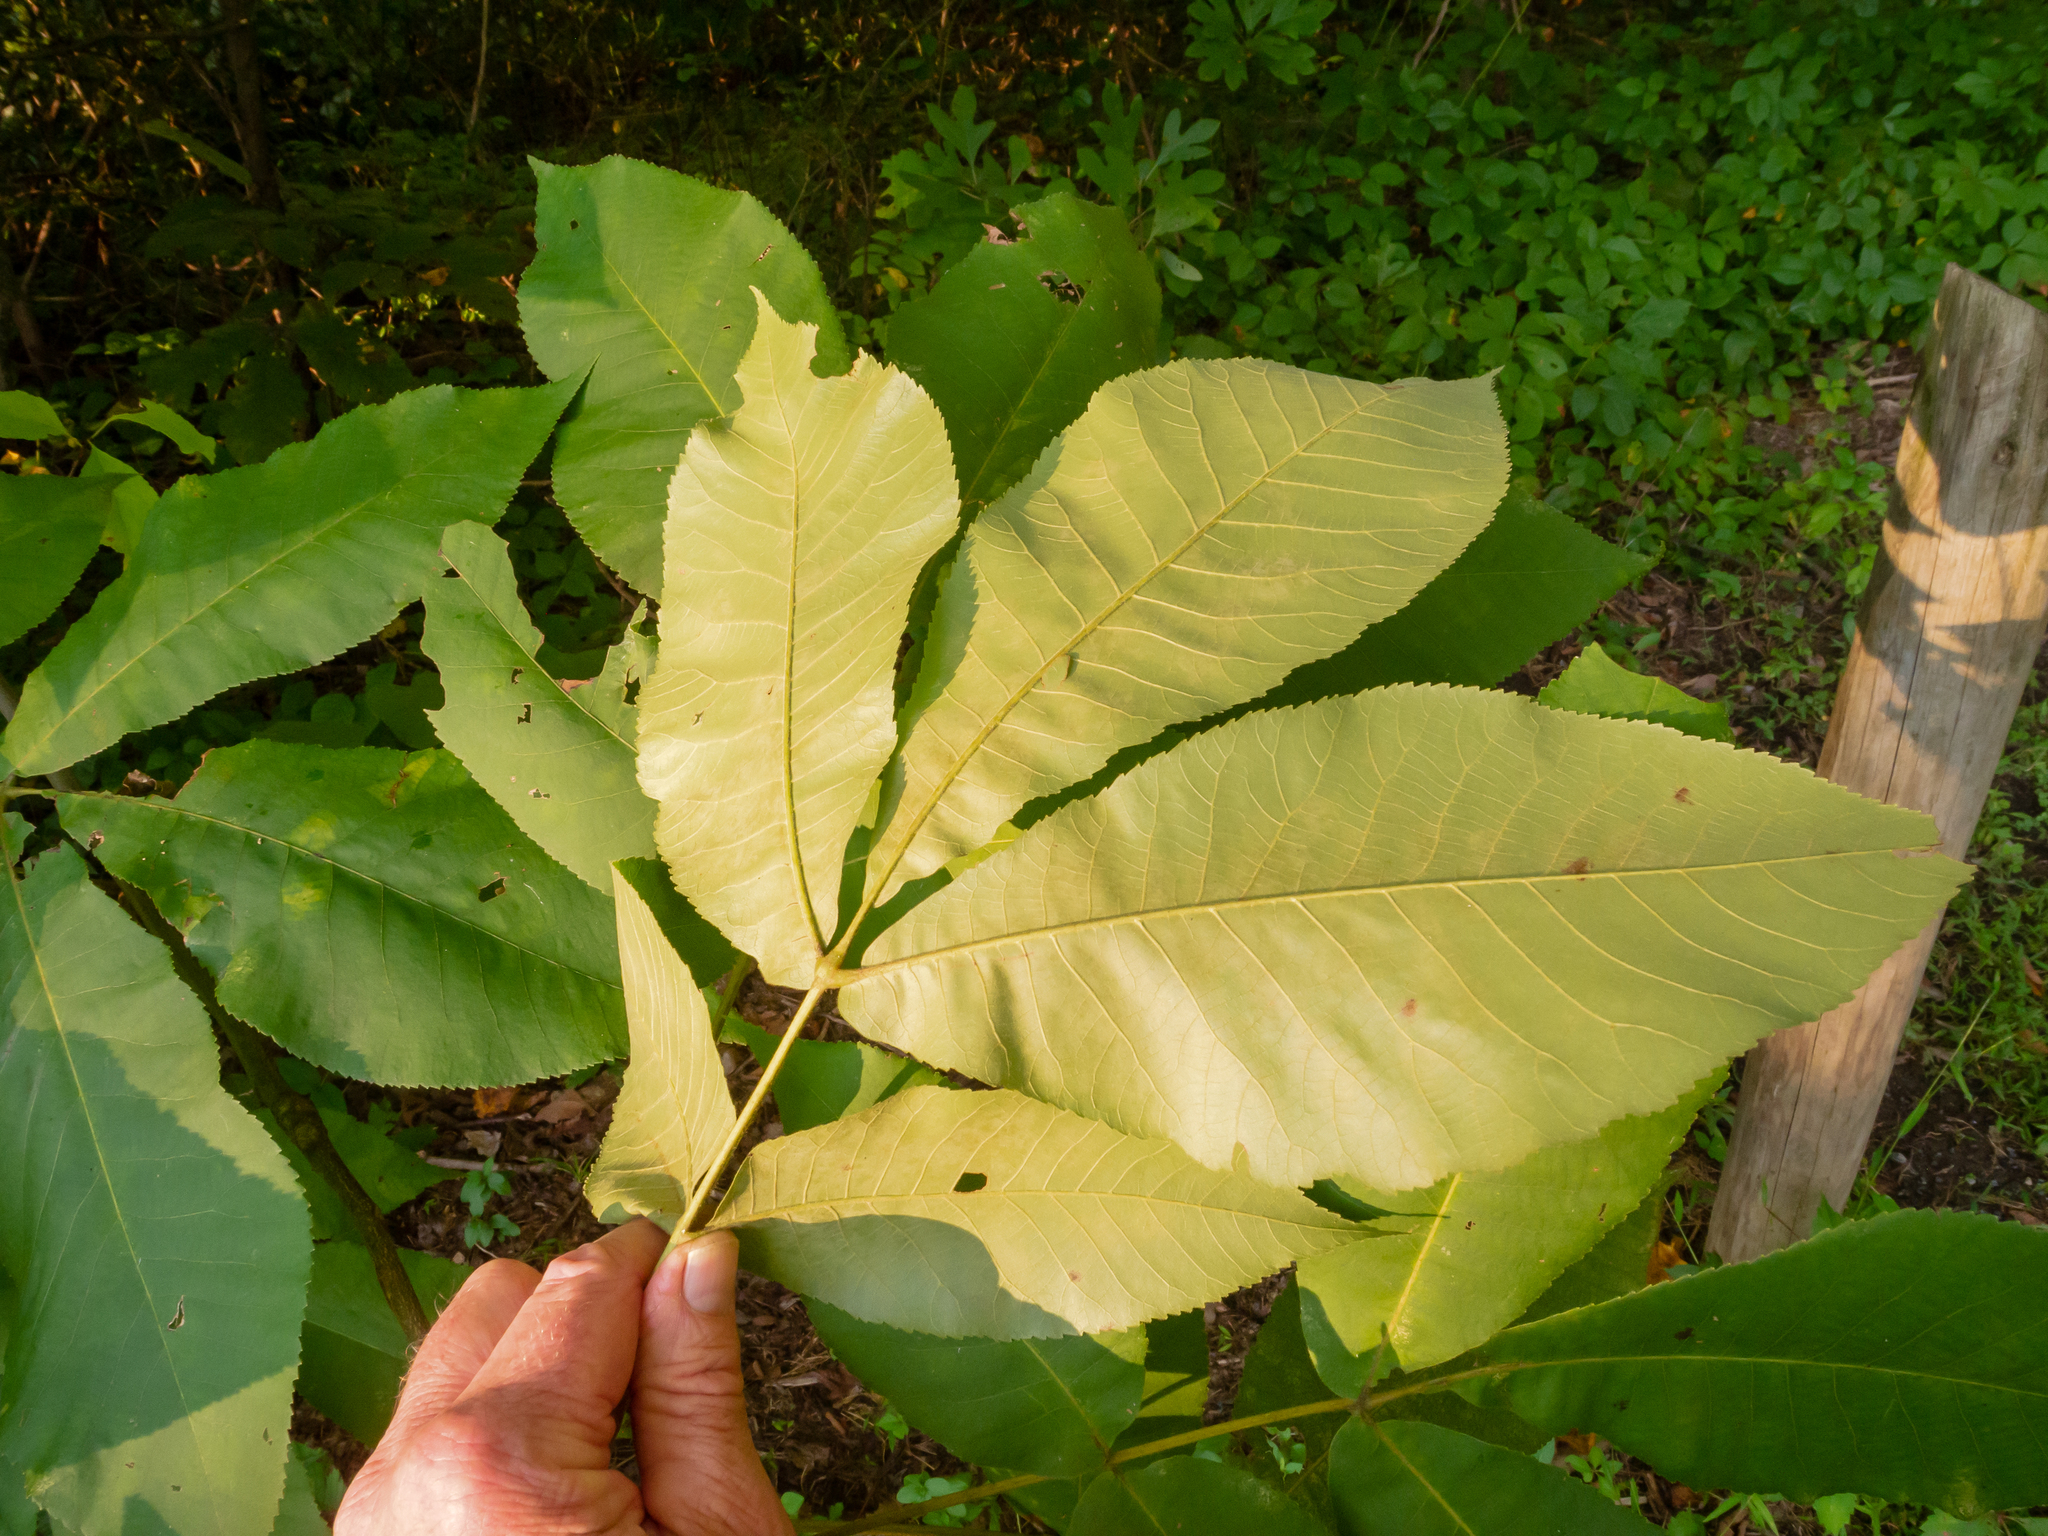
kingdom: Plantae
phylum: Tracheophyta
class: Magnoliopsida
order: Fagales
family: Juglandaceae
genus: Carya
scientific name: Carya alba
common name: Mockernut hickory
